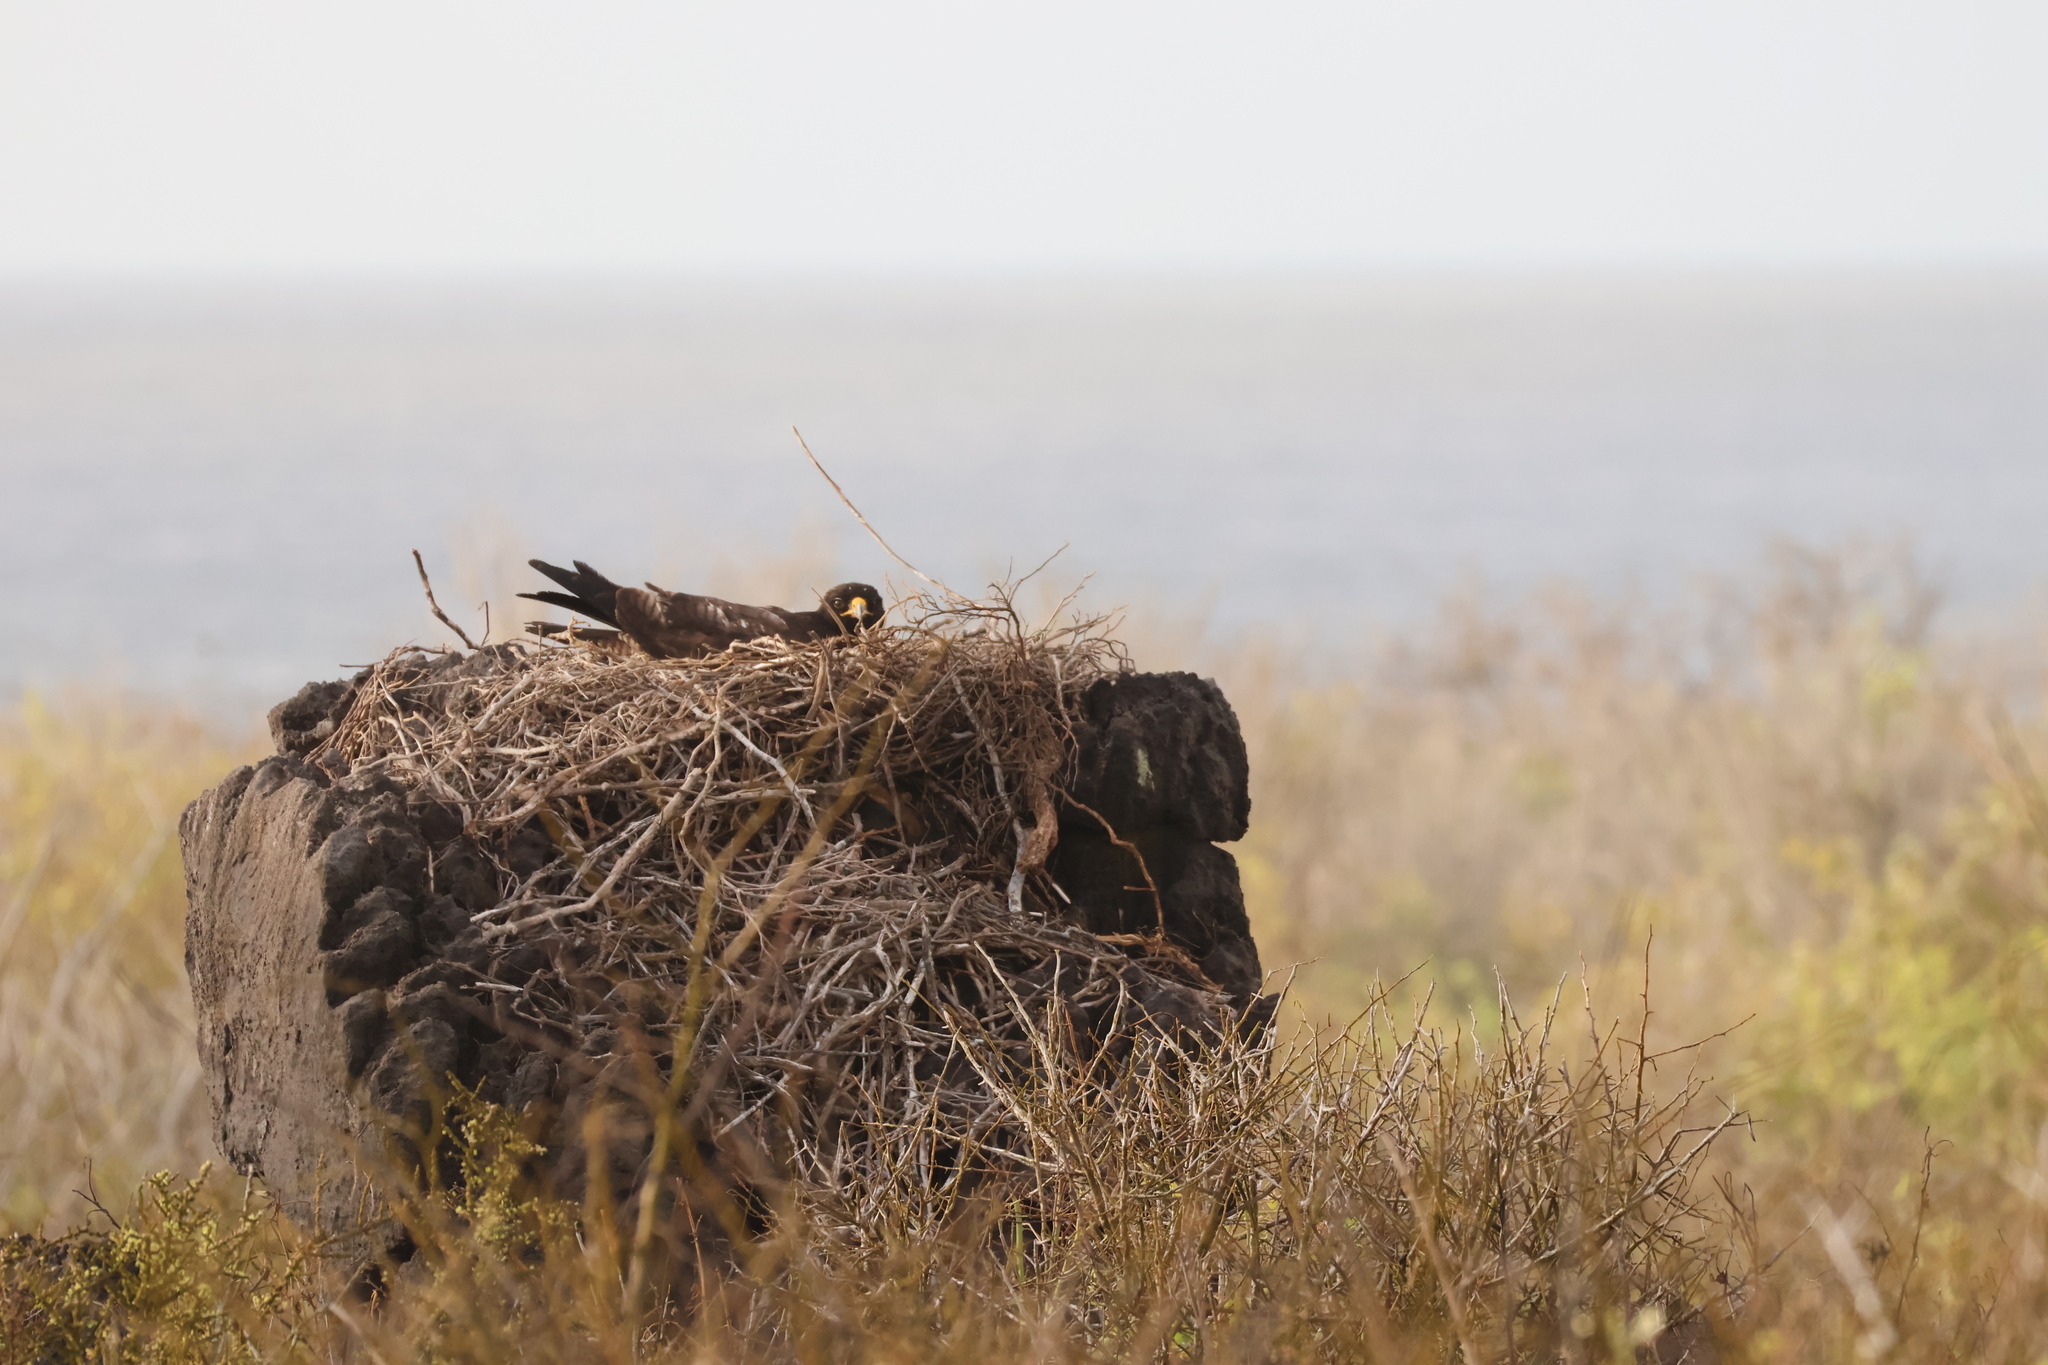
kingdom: Animalia
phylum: Chordata
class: Aves
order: Accipitriformes
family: Accipitridae
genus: Buteo
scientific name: Buteo galapagoensis
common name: Galapagos hawk
